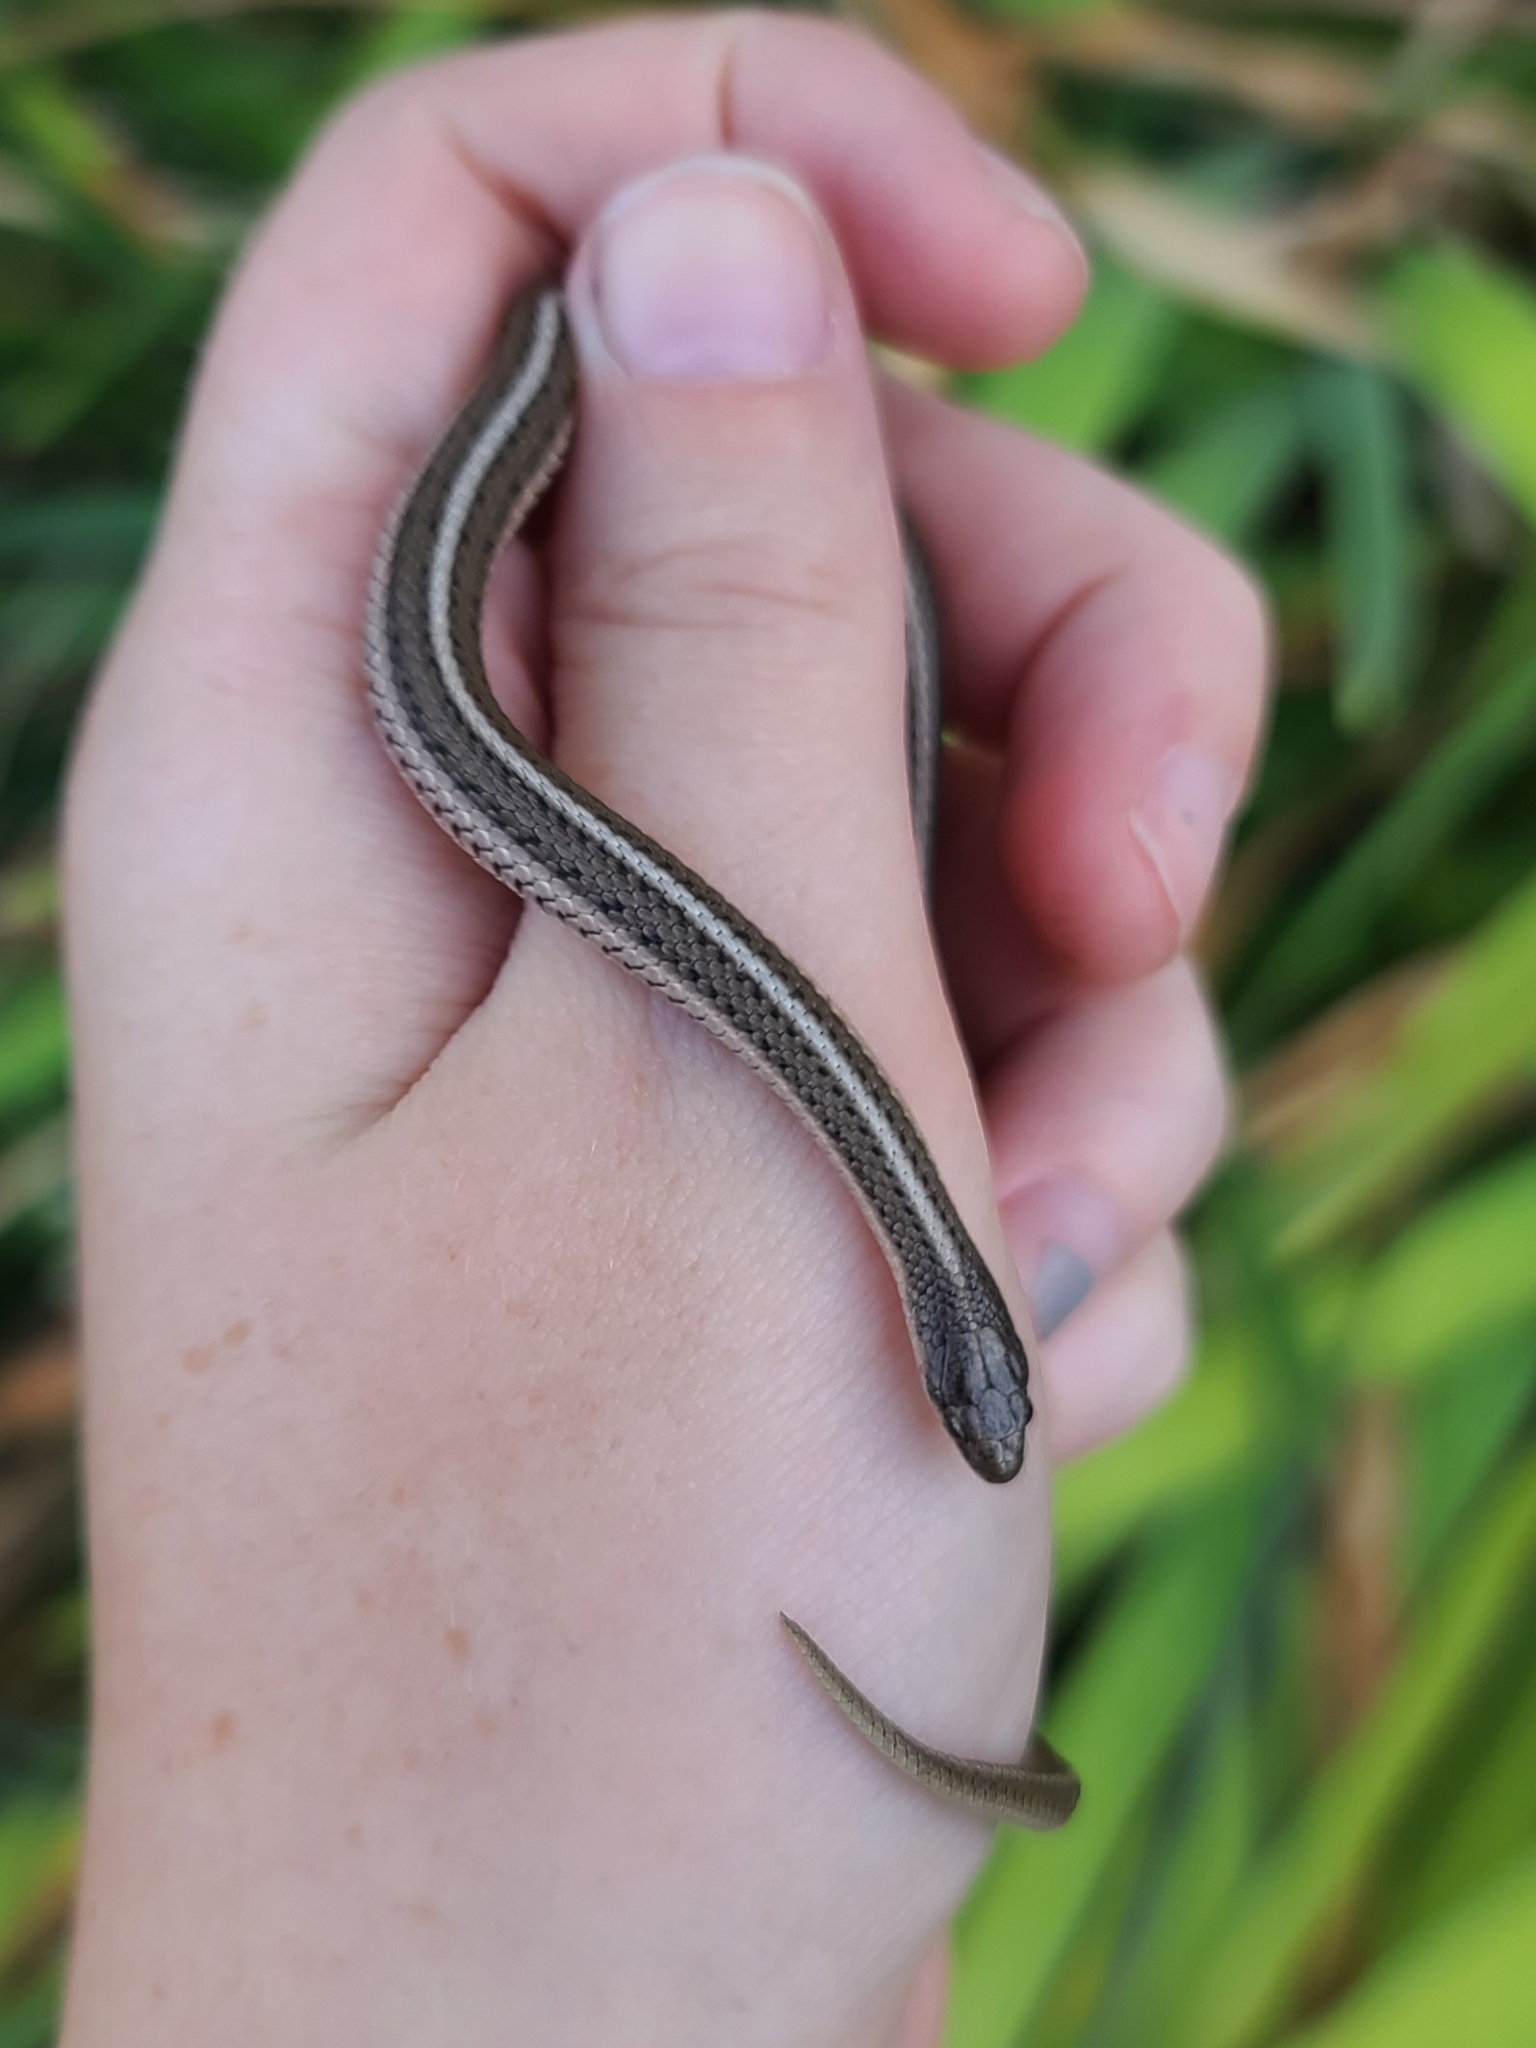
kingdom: Animalia
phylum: Chordata
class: Squamata
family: Colubridae
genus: Tropidoclonion
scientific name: Tropidoclonion lineatum
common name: Lined snake
